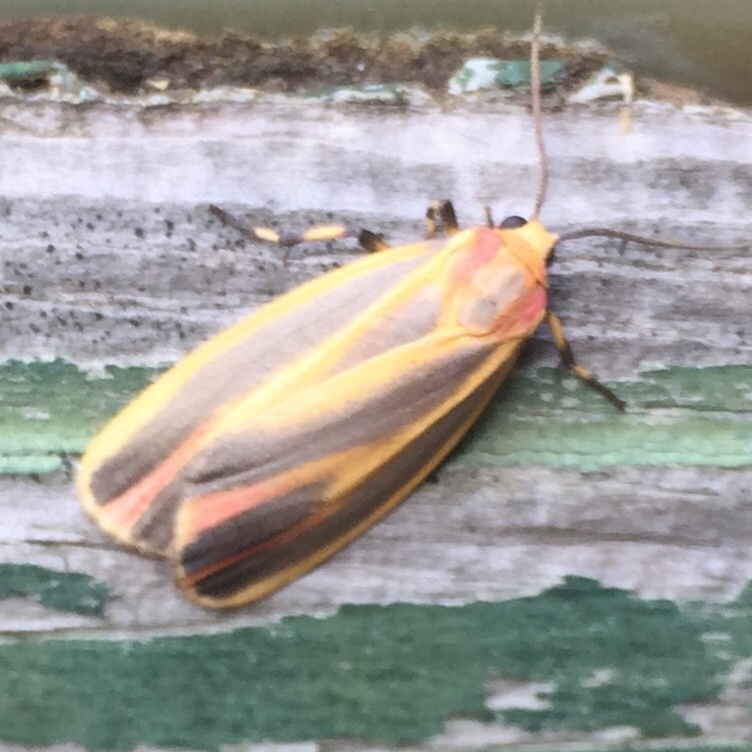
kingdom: Animalia
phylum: Arthropoda
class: Insecta
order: Lepidoptera
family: Erebidae
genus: Hypoprepia
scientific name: Hypoprepia fucosa
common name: Painted lichen moth
